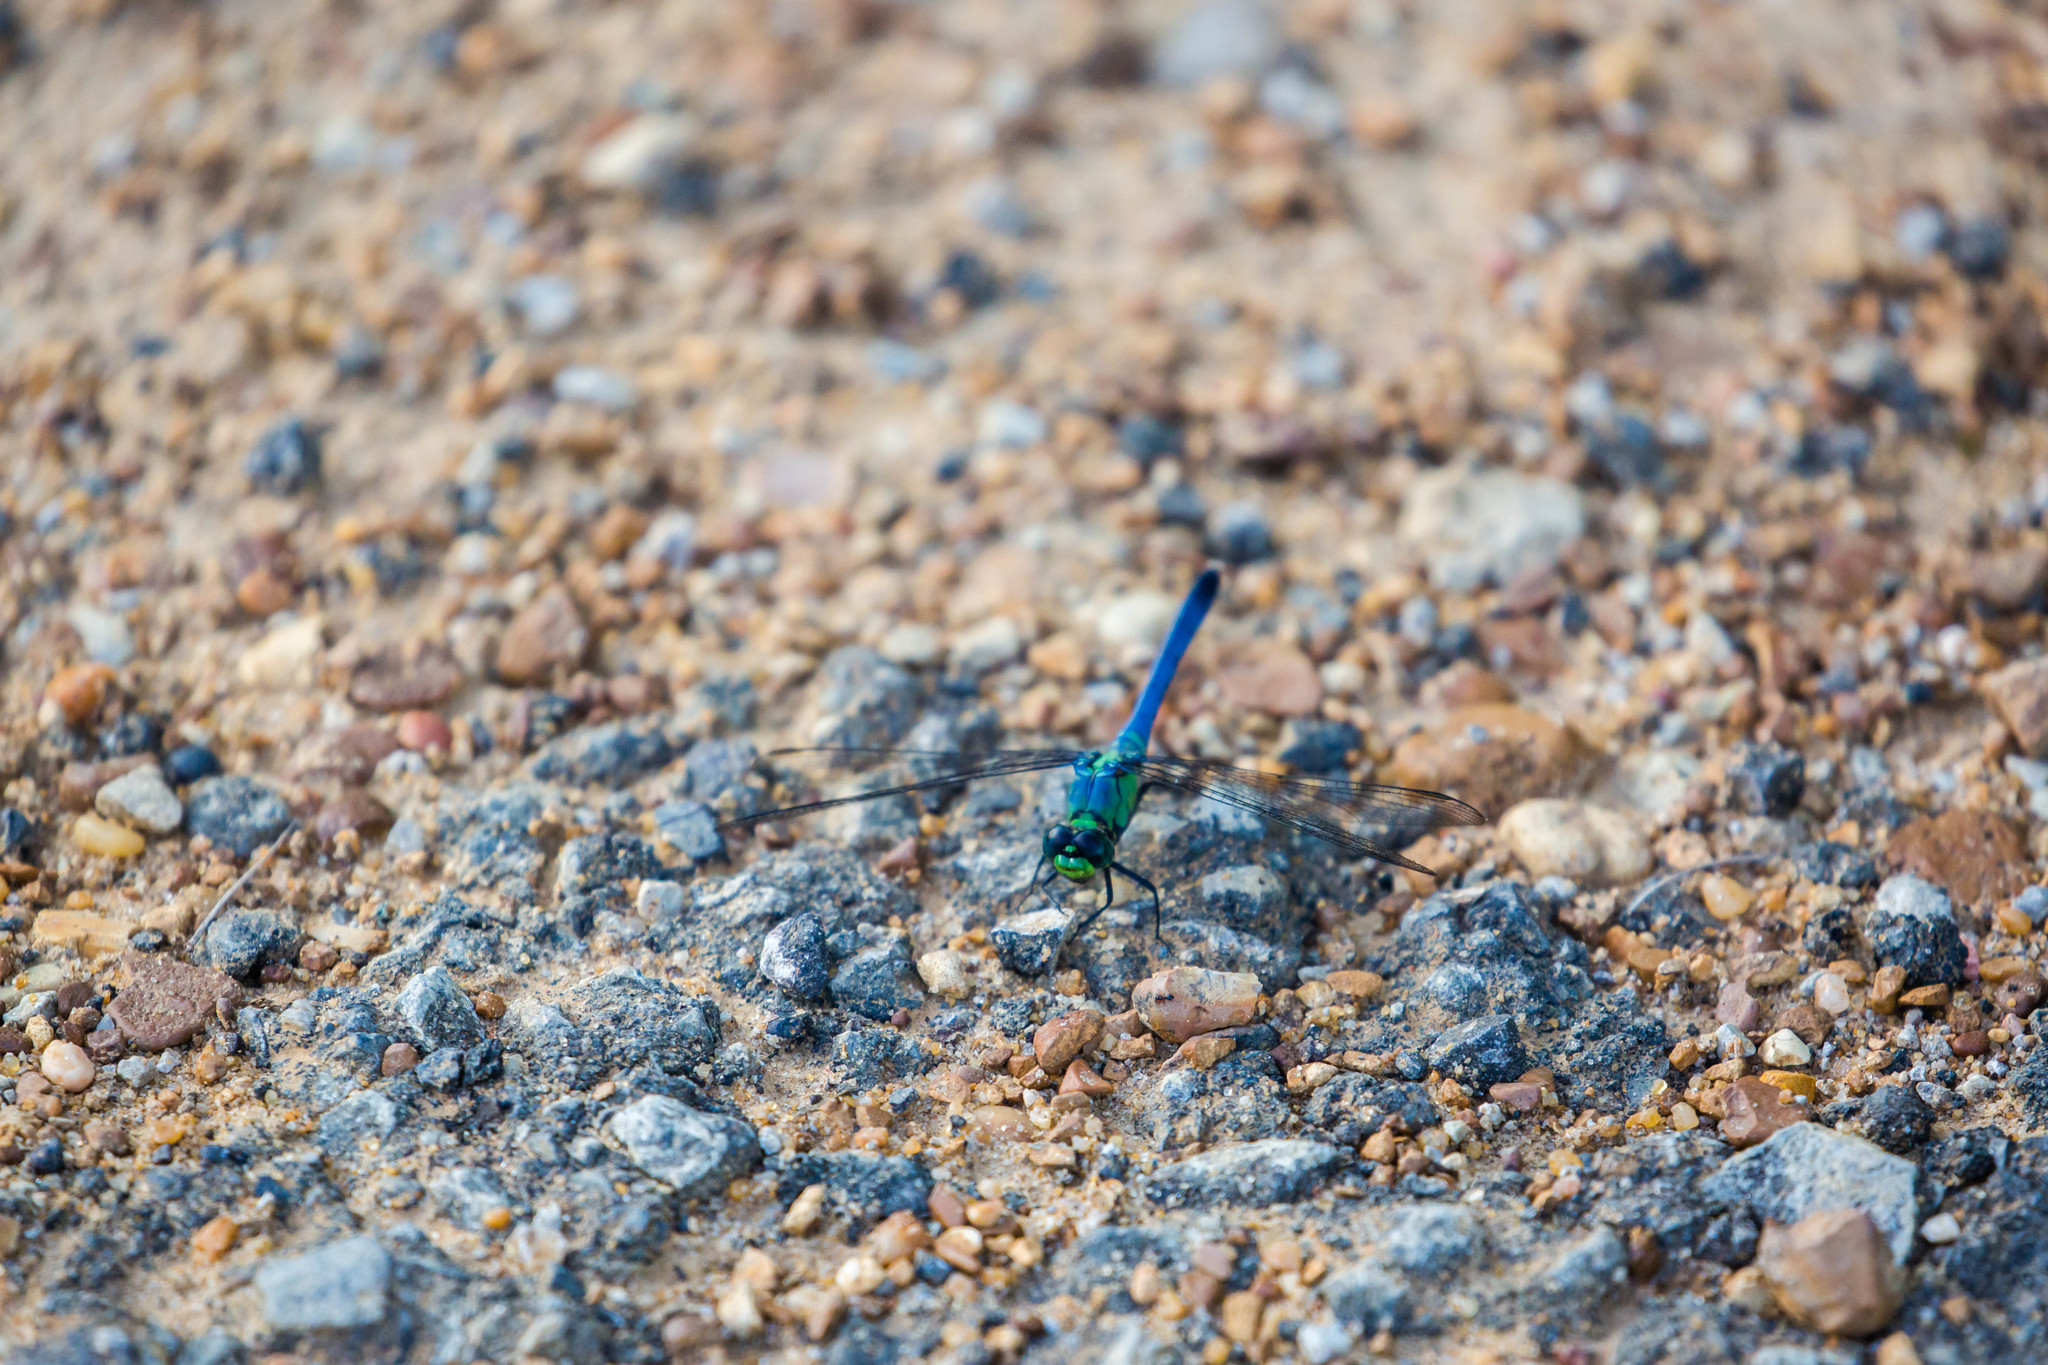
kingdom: Animalia
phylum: Arthropoda
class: Insecta
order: Odonata
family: Libellulidae
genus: Erythemis
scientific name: Erythemis simplicicollis
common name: Eastern pondhawk
